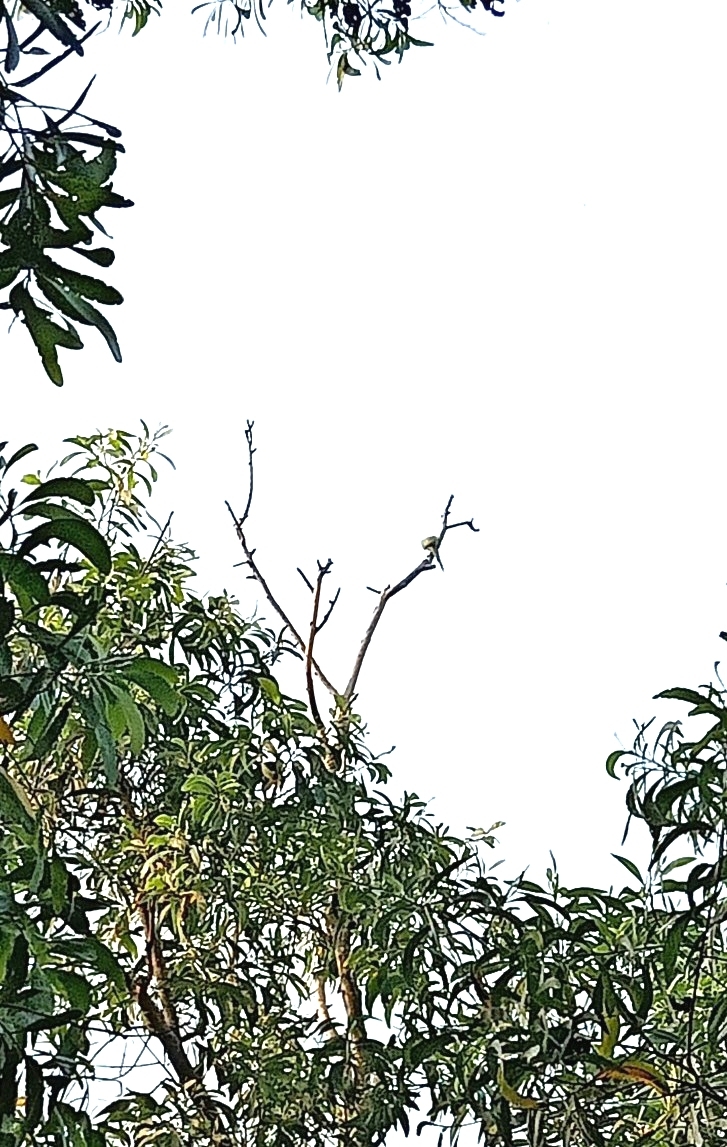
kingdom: Animalia
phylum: Chordata
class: Aves
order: Psittaciformes
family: Psittacidae
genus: Psittacula
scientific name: Psittacula krameri
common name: Rose-ringed parakeet
